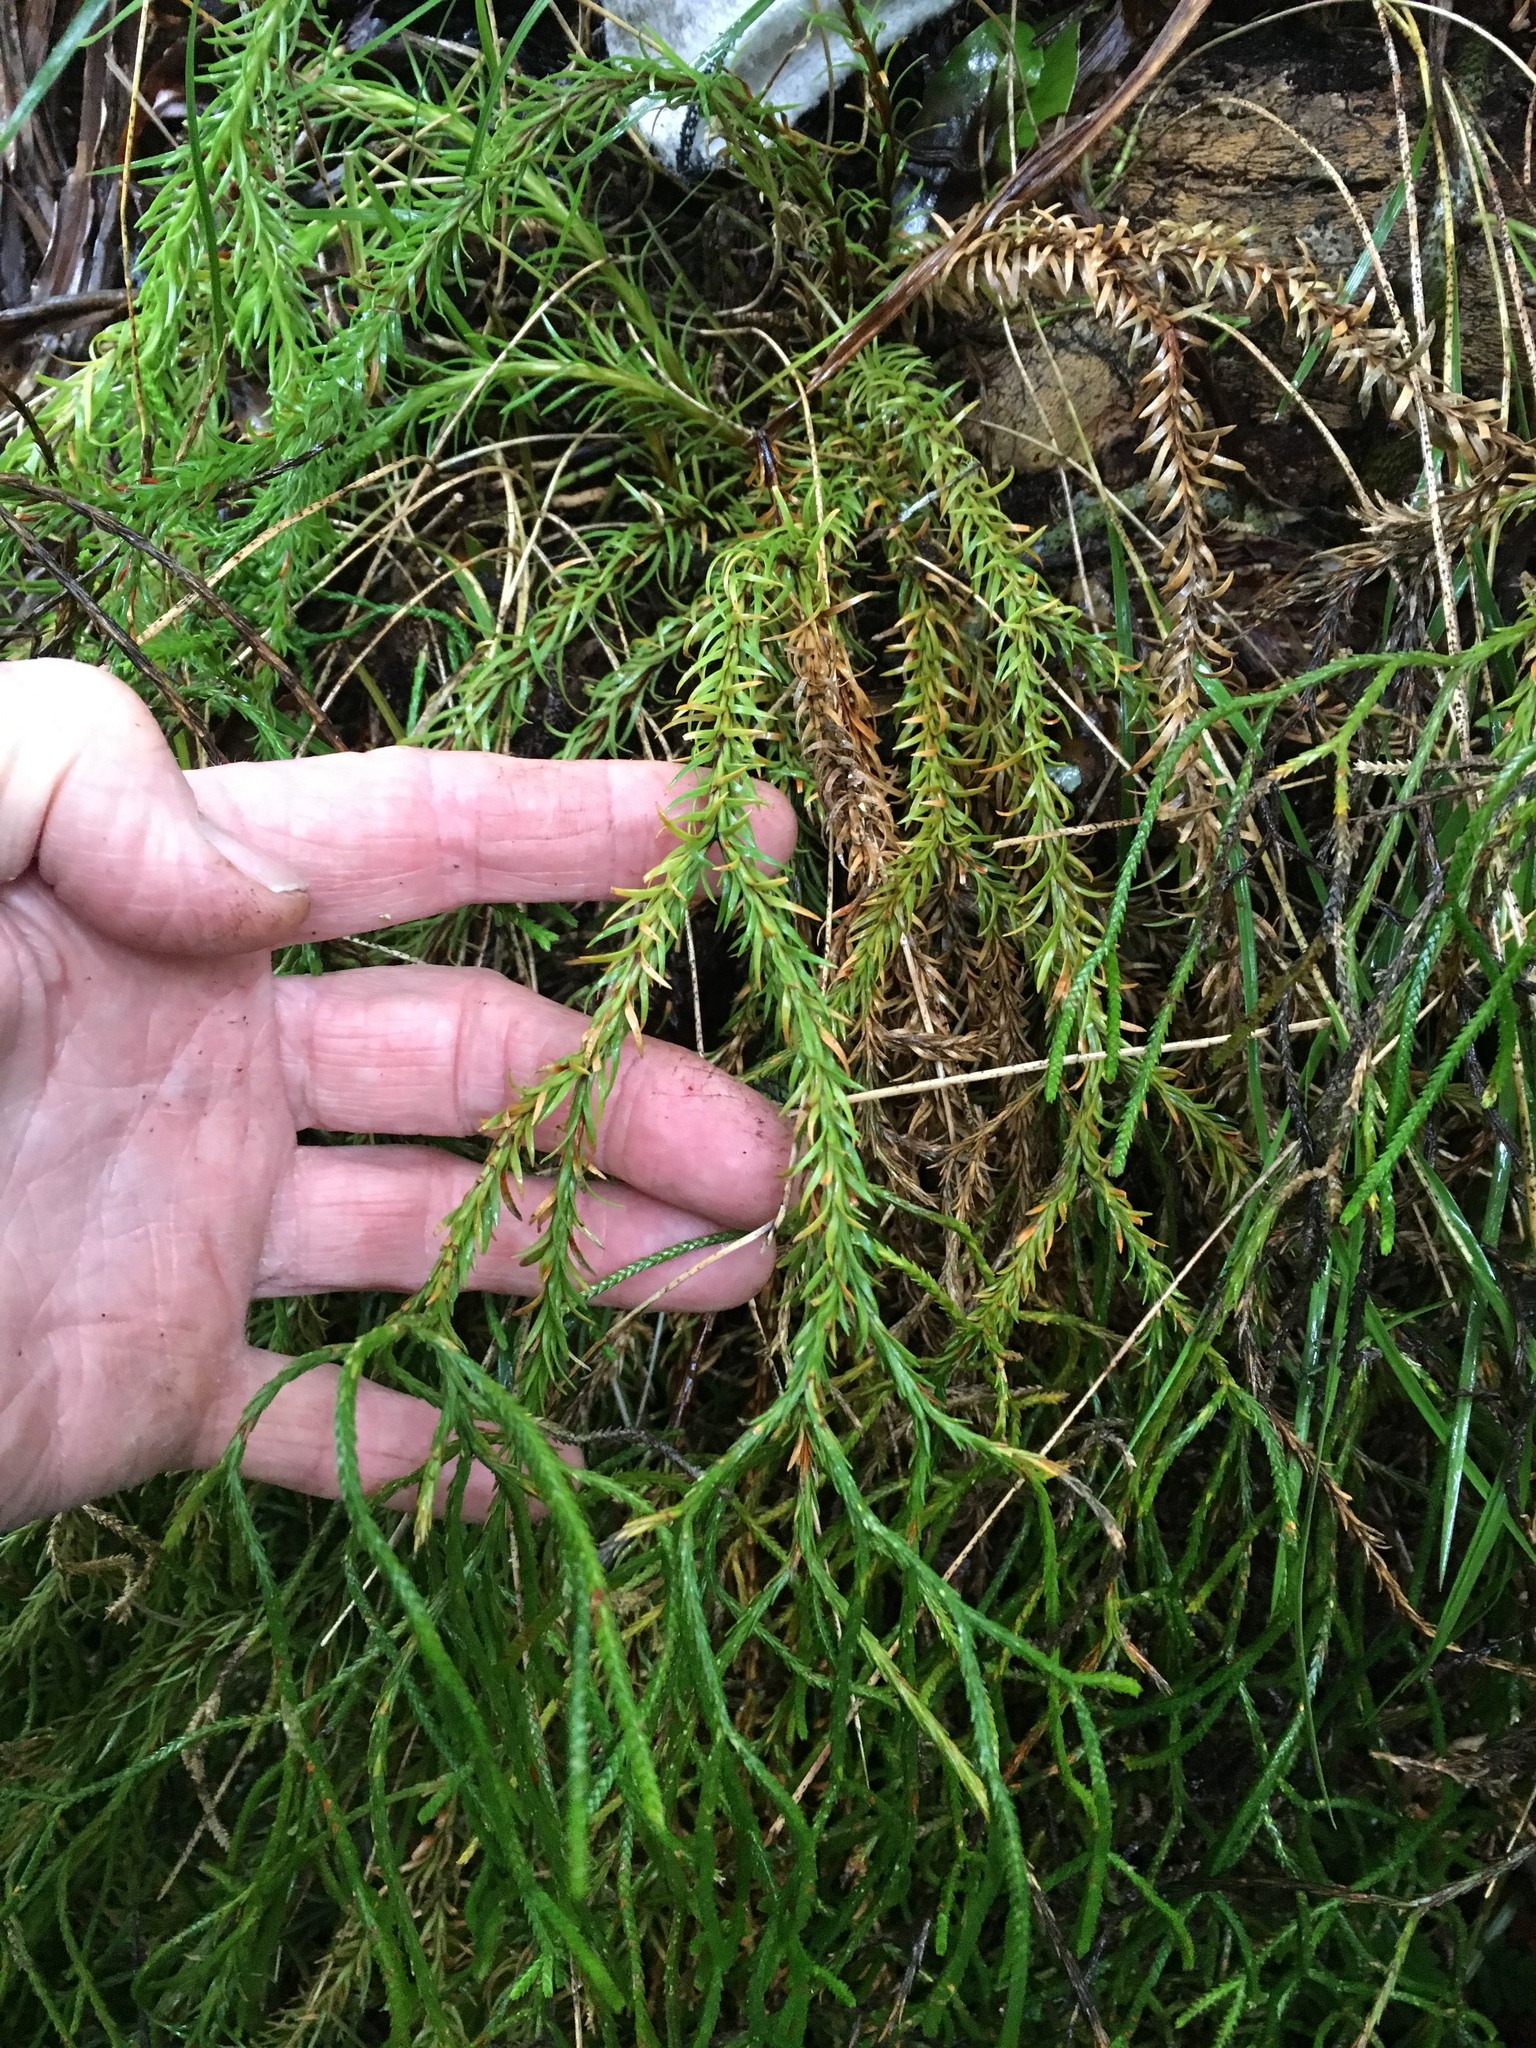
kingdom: Plantae
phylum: Tracheophyta
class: Lycopodiopsida
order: Lycopodiales
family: Lycopodiaceae
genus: Phlegmariurus
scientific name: Phlegmariurus varius
